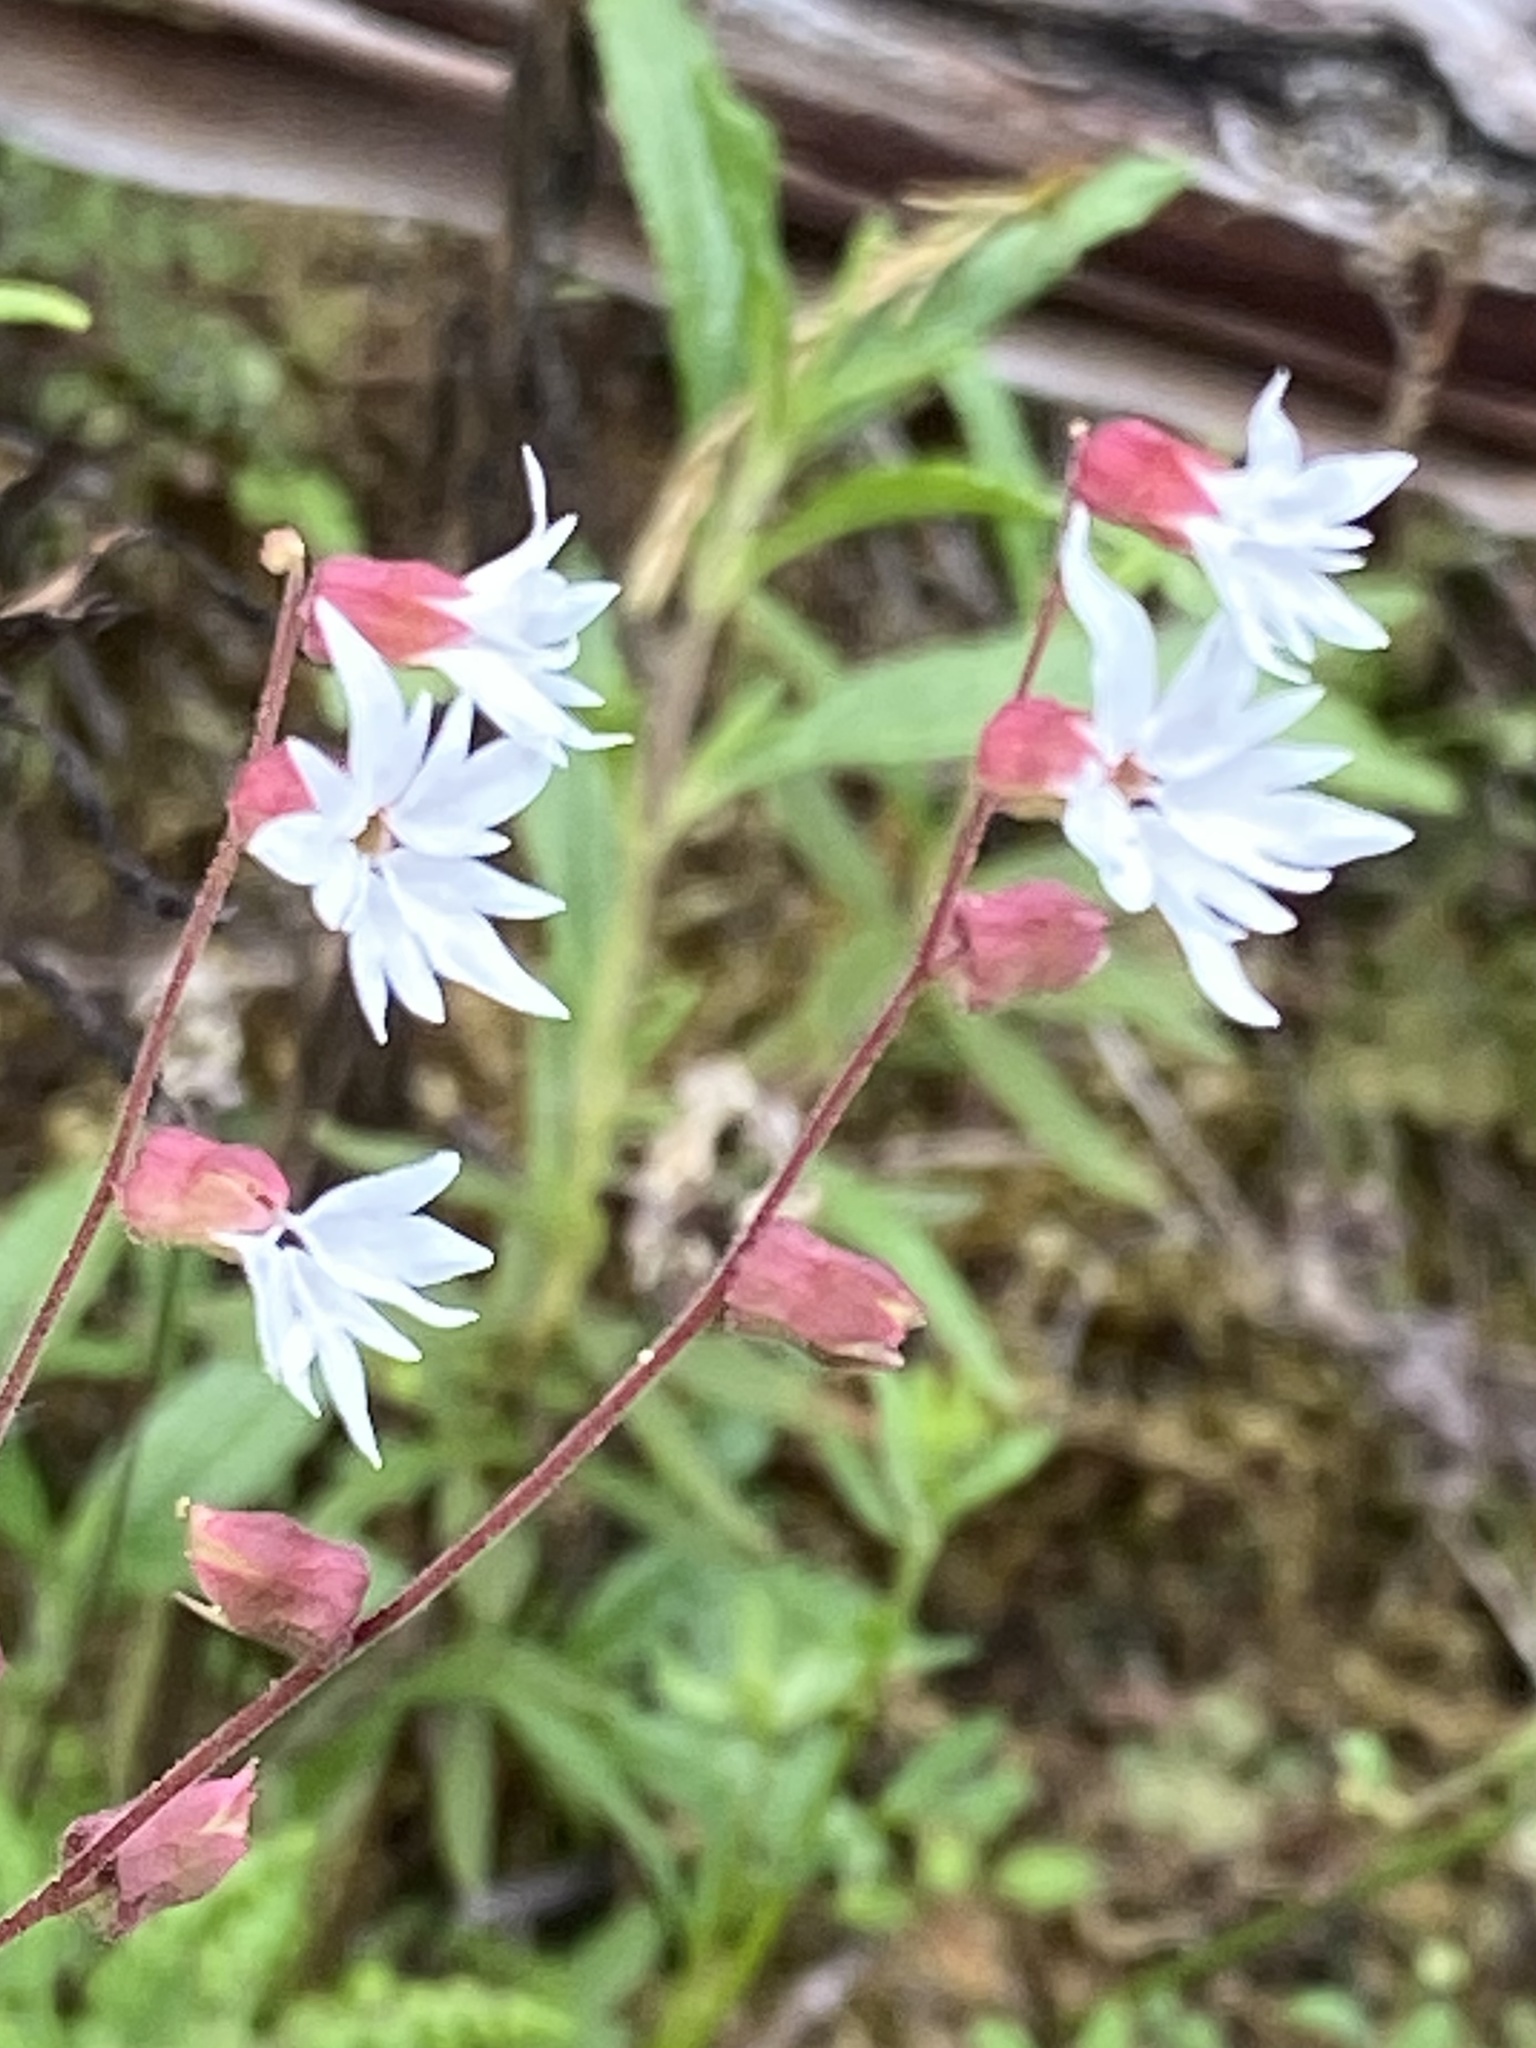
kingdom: Plantae
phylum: Tracheophyta
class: Magnoliopsida
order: Saxifragales
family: Saxifragaceae
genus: Lithophragma
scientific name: Lithophragma heterophyllum
